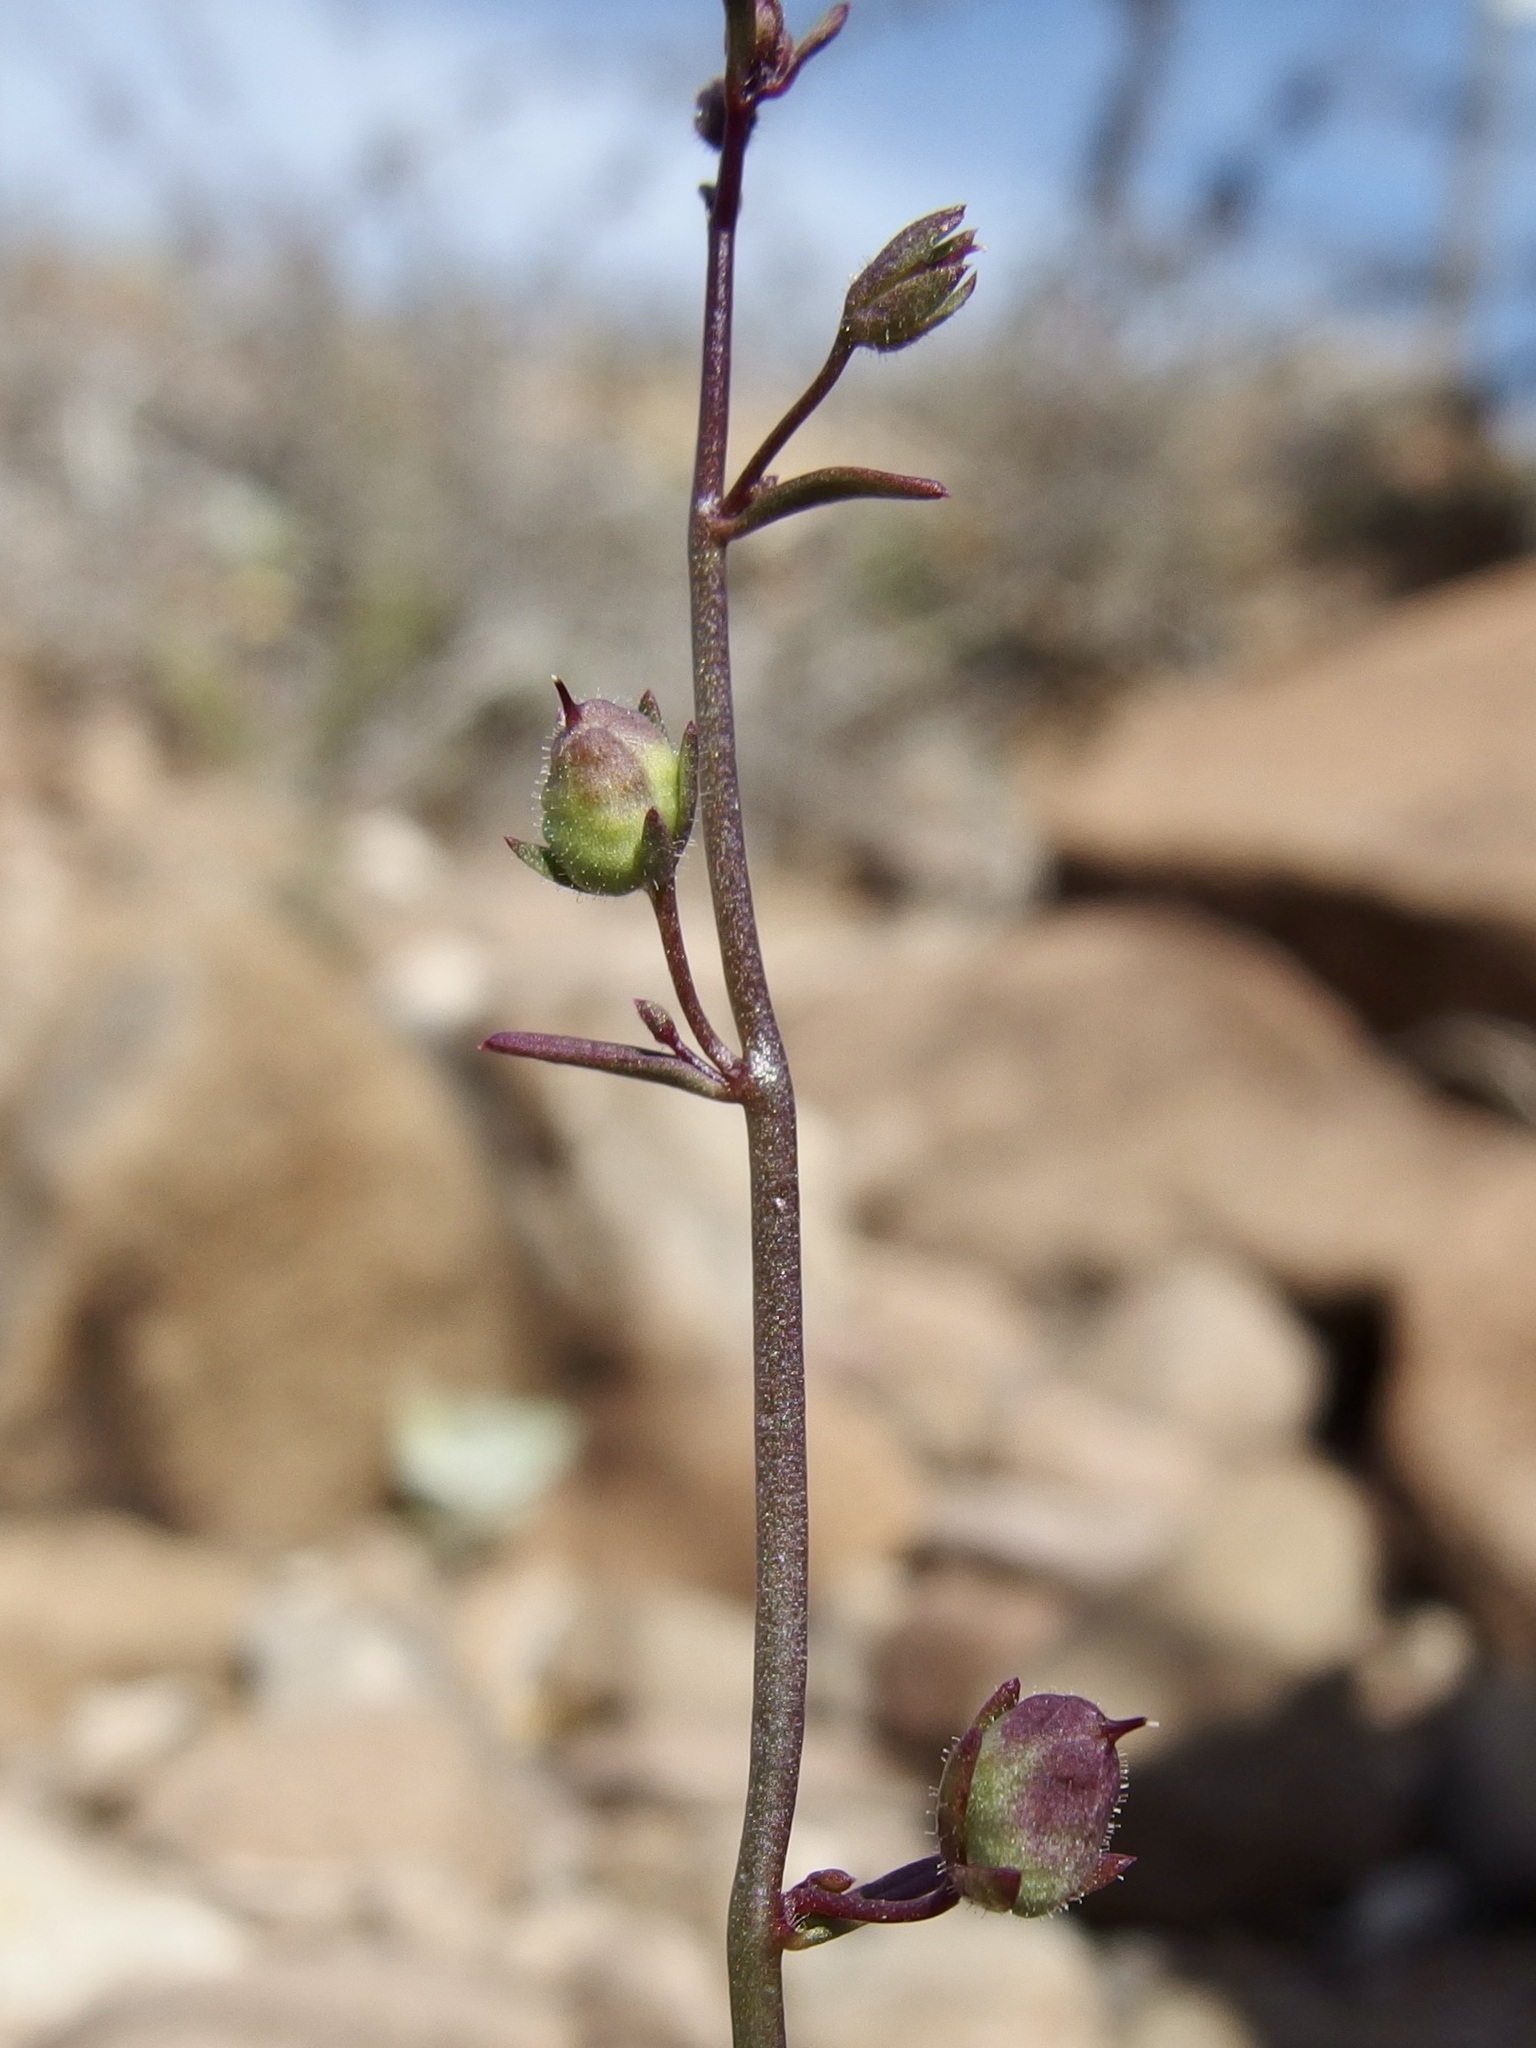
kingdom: Plantae
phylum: Tracheophyta
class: Magnoliopsida
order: Lamiales
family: Plantaginaceae
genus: Sairocarpus
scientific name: Sairocarpus watsonii
